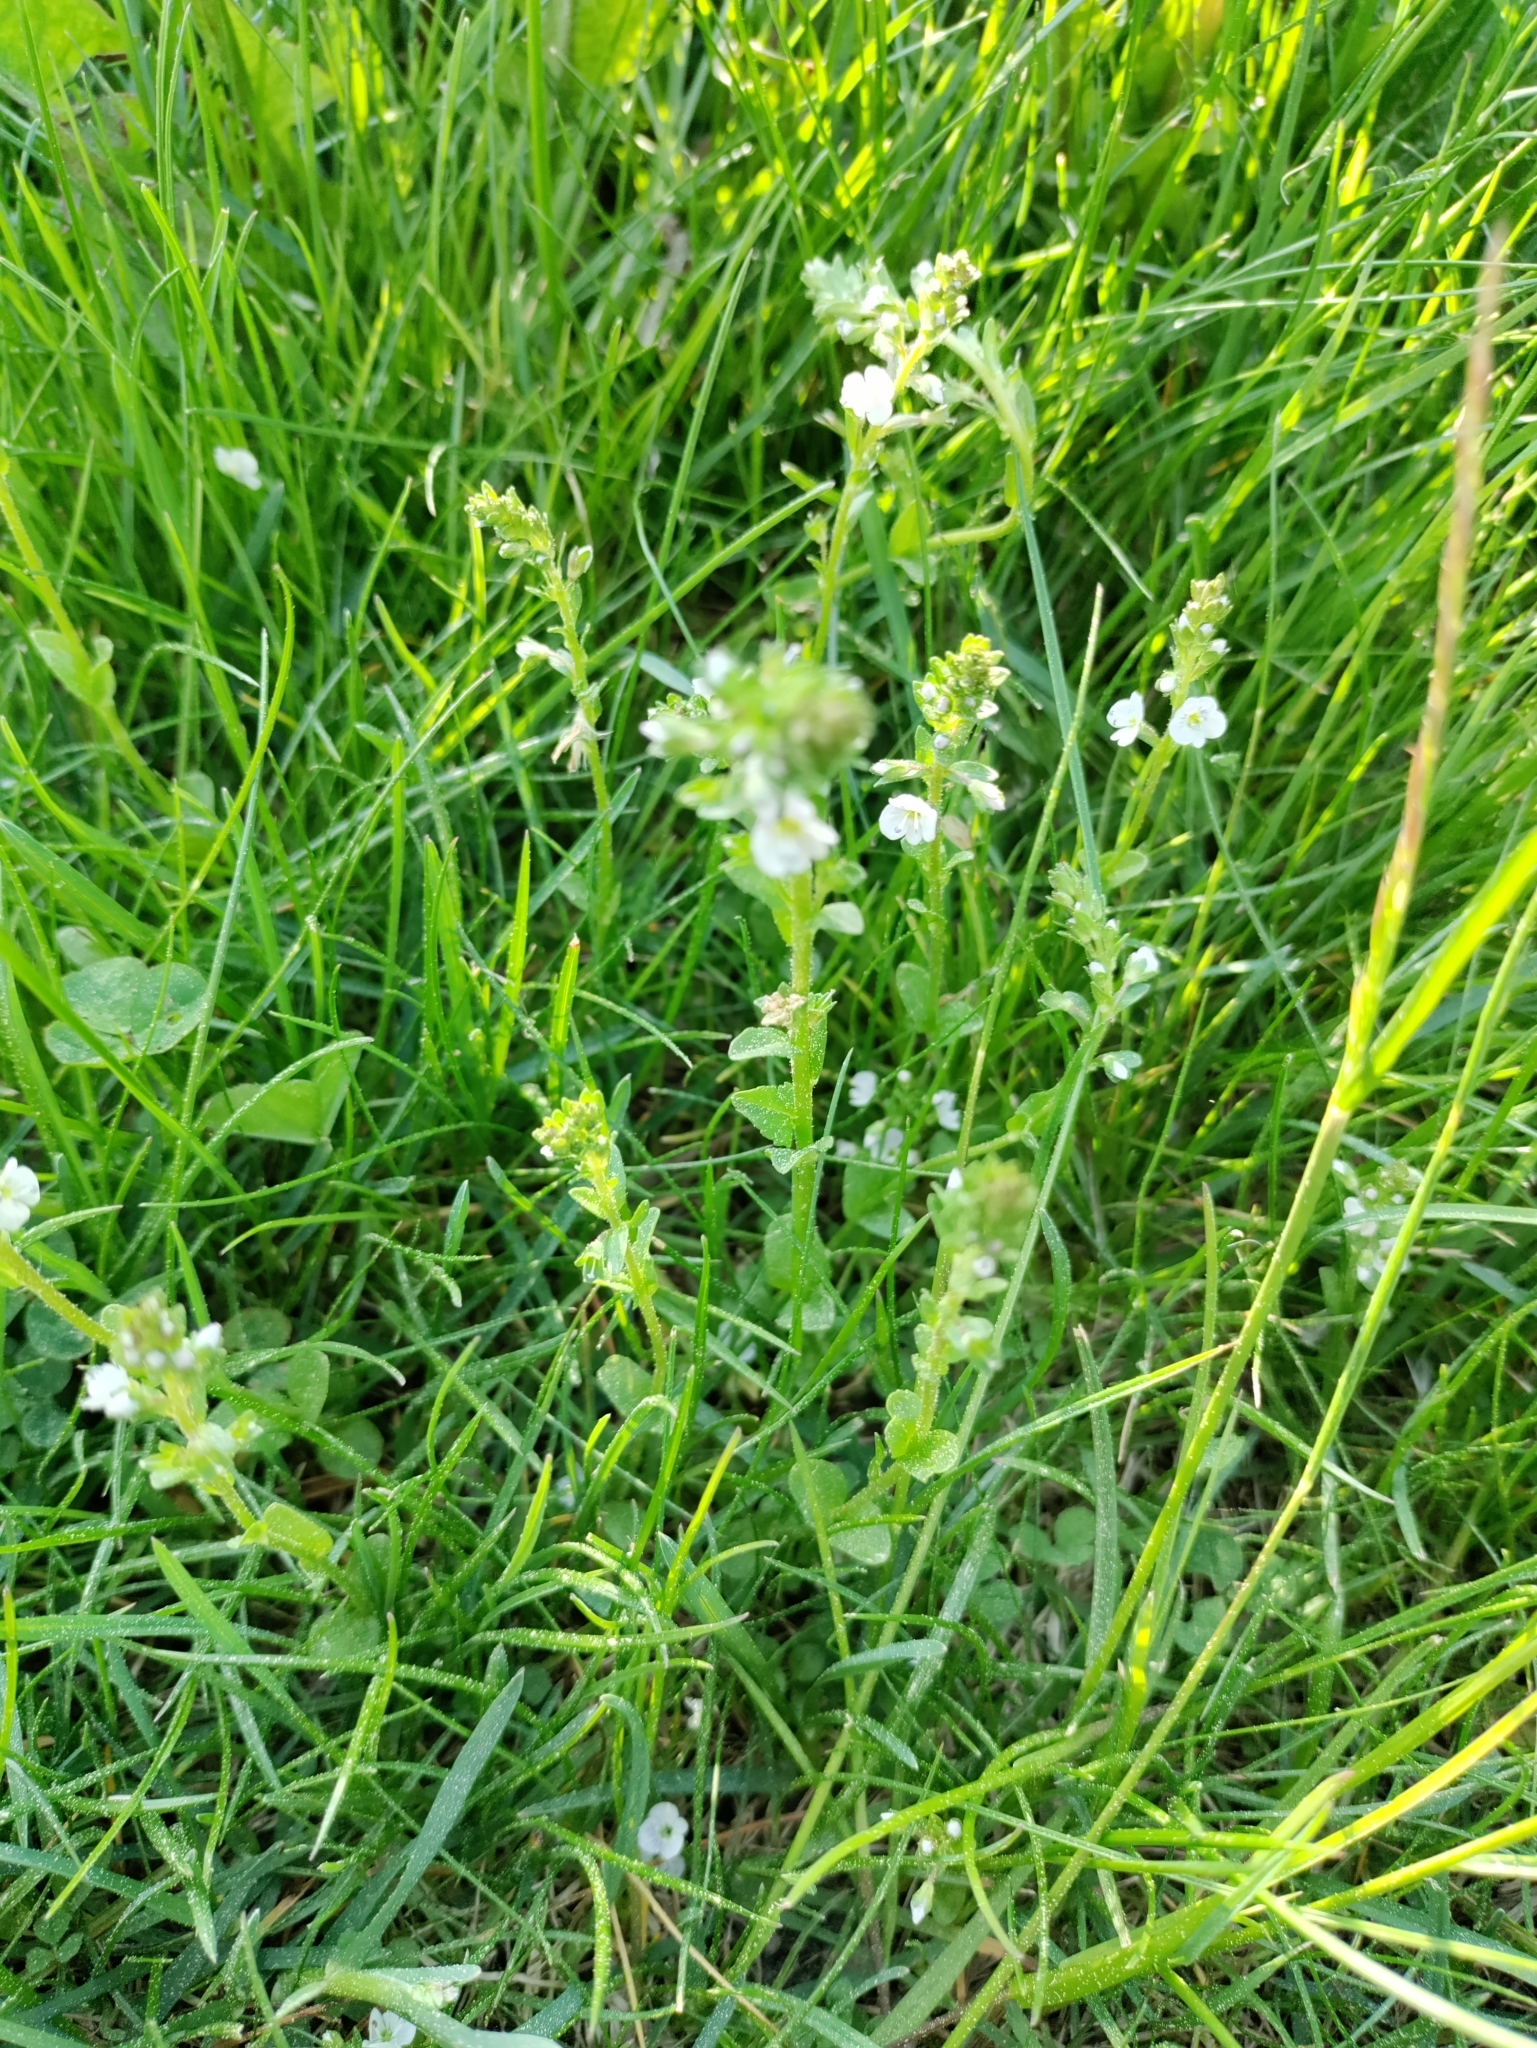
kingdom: Plantae
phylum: Tracheophyta
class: Magnoliopsida
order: Lamiales
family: Plantaginaceae
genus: Veronica
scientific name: Veronica serpyllifolia
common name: Thyme-leaved speedwell
